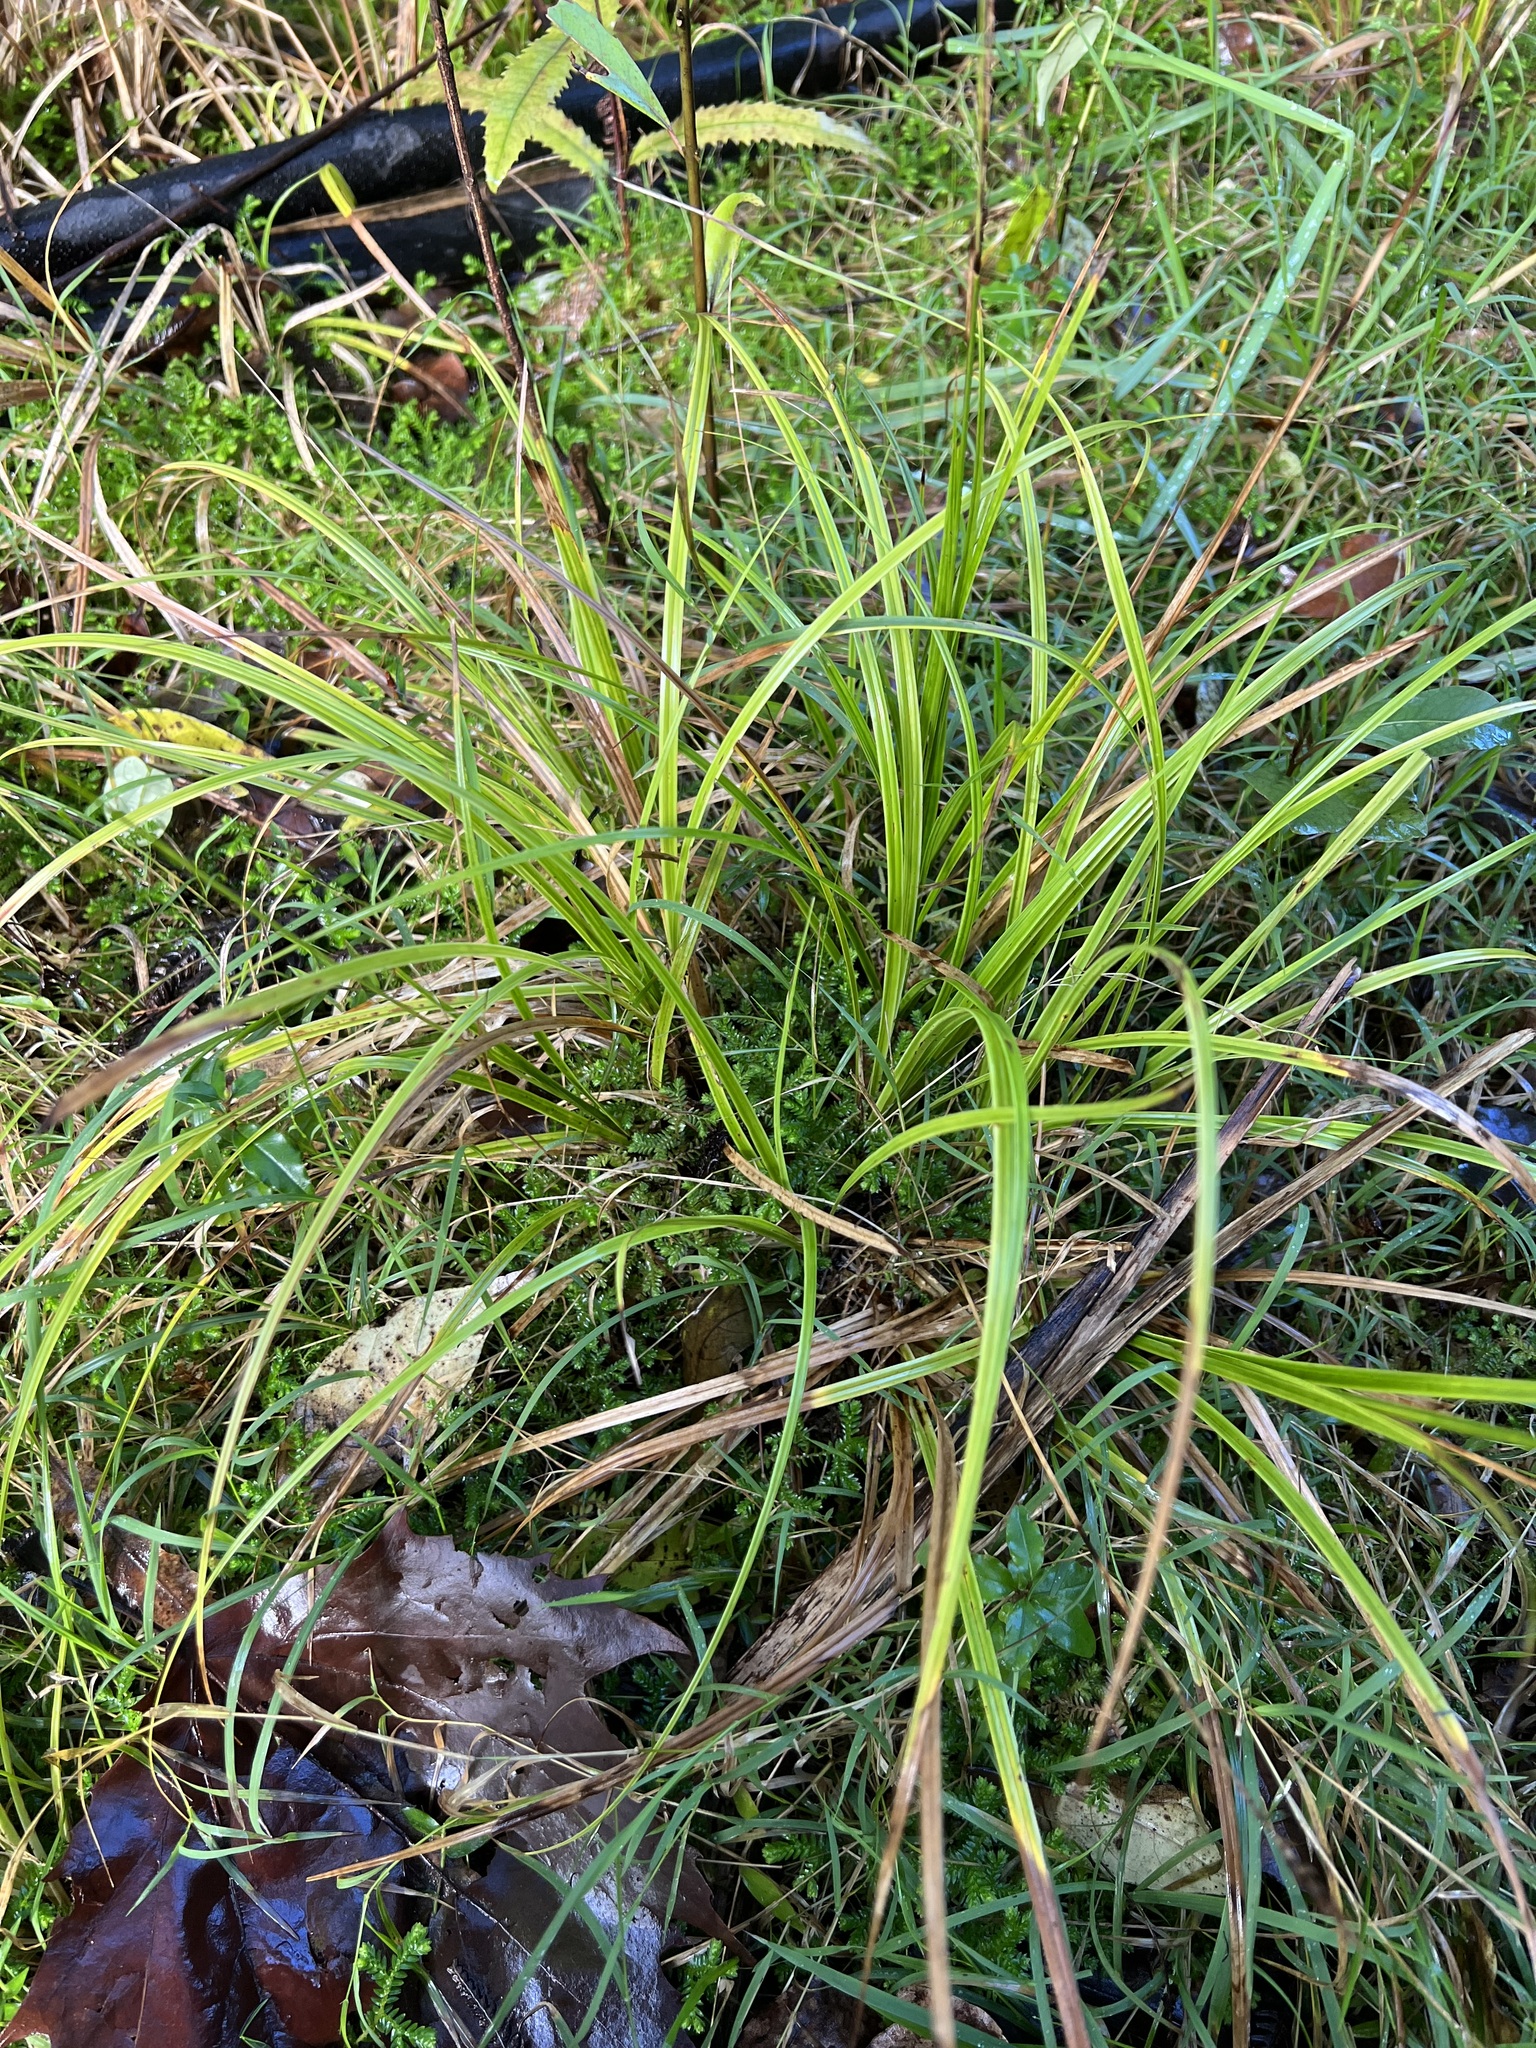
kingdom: Plantae
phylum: Tracheophyta
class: Liliopsida
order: Poales
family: Cyperaceae
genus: Carex
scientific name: Carex uncinata
